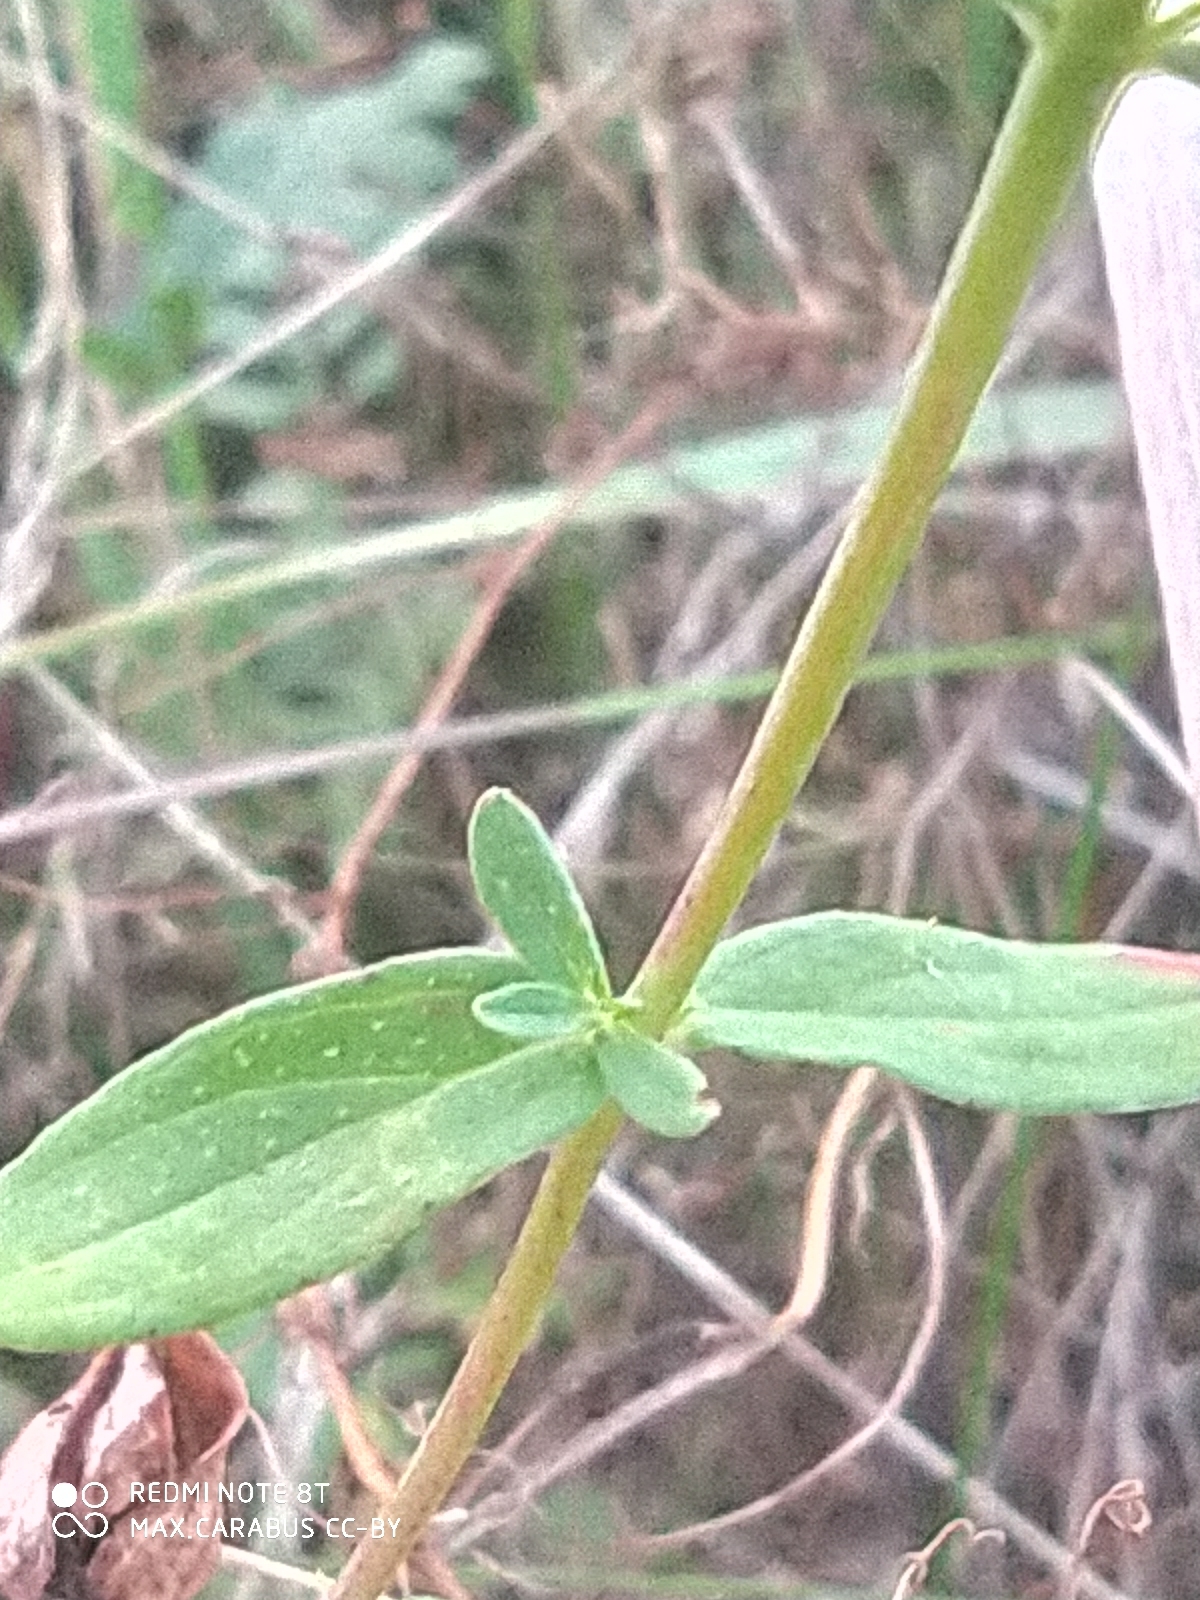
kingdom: Plantae
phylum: Tracheophyta
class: Magnoliopsida
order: Malpighiales
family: Hypericaceae
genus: Hypericum
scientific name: Hypericum perforatum
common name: Common st. johnswort
